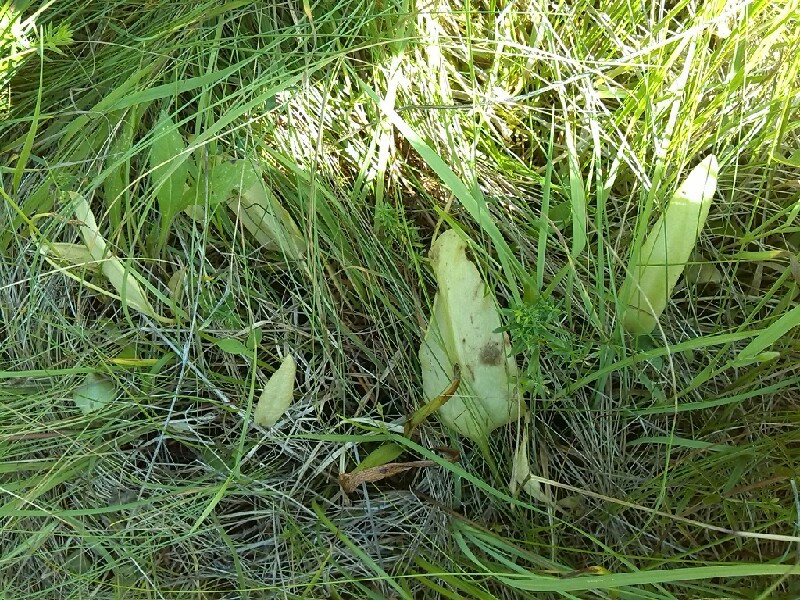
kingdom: Plantae
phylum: Tracheophyta
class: Polypodiopsida
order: Ophioglossales
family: Ophioglossaceae
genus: Ophioglossum
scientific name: Ophioglossum vulgatum
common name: Adder's-tongue
